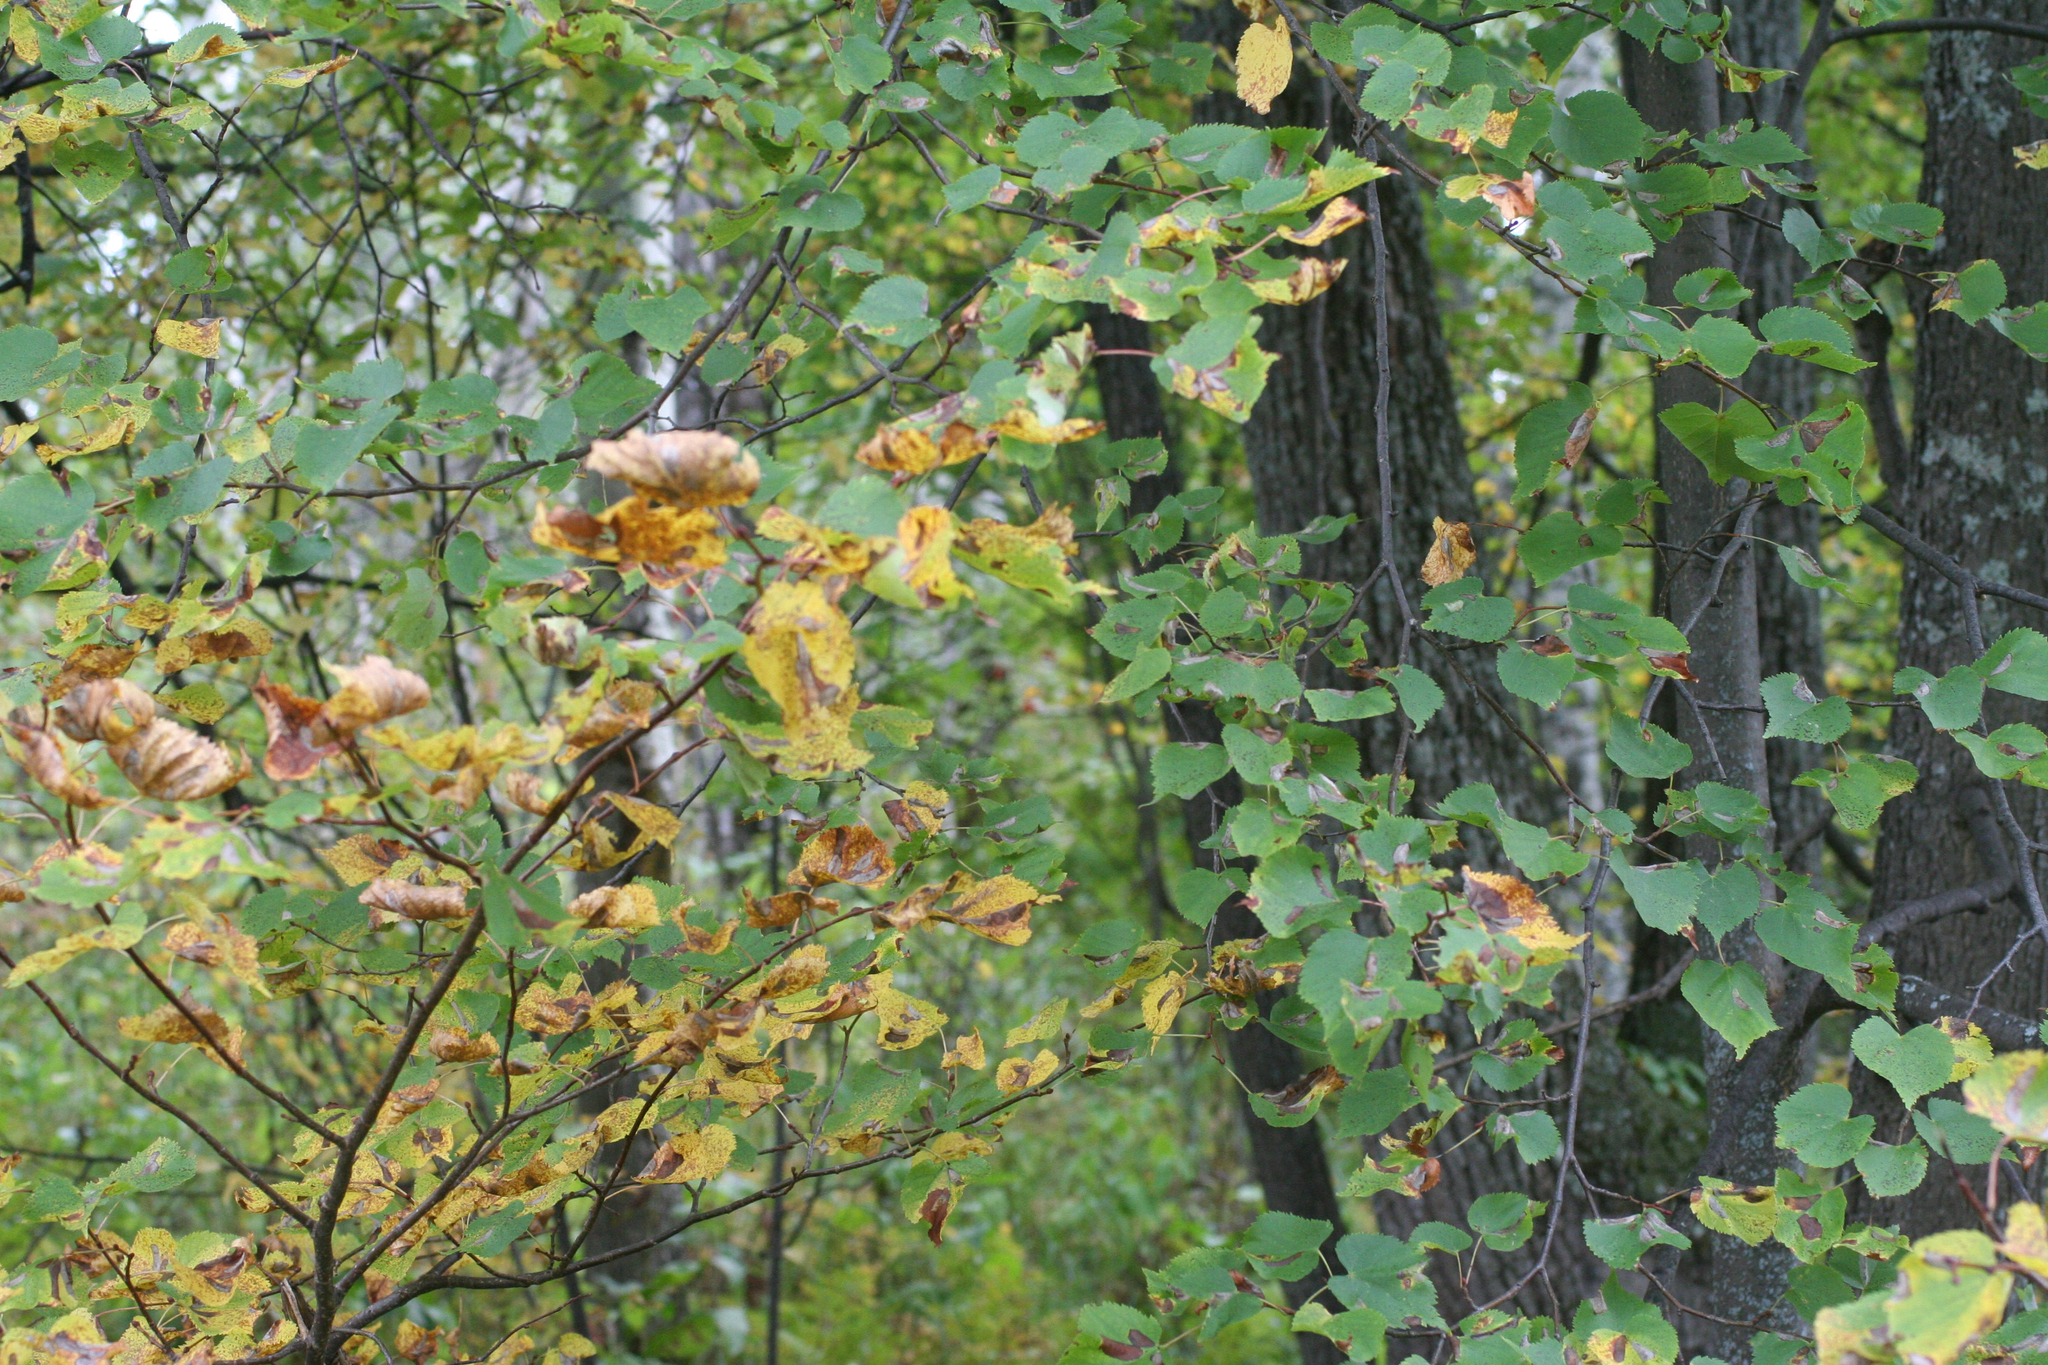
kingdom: Plantae
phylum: Tracheophyta
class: Magnoliopsida
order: Malvales
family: Malvaceae
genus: Tilia
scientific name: Tilia cordata
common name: Small-leaved lime
